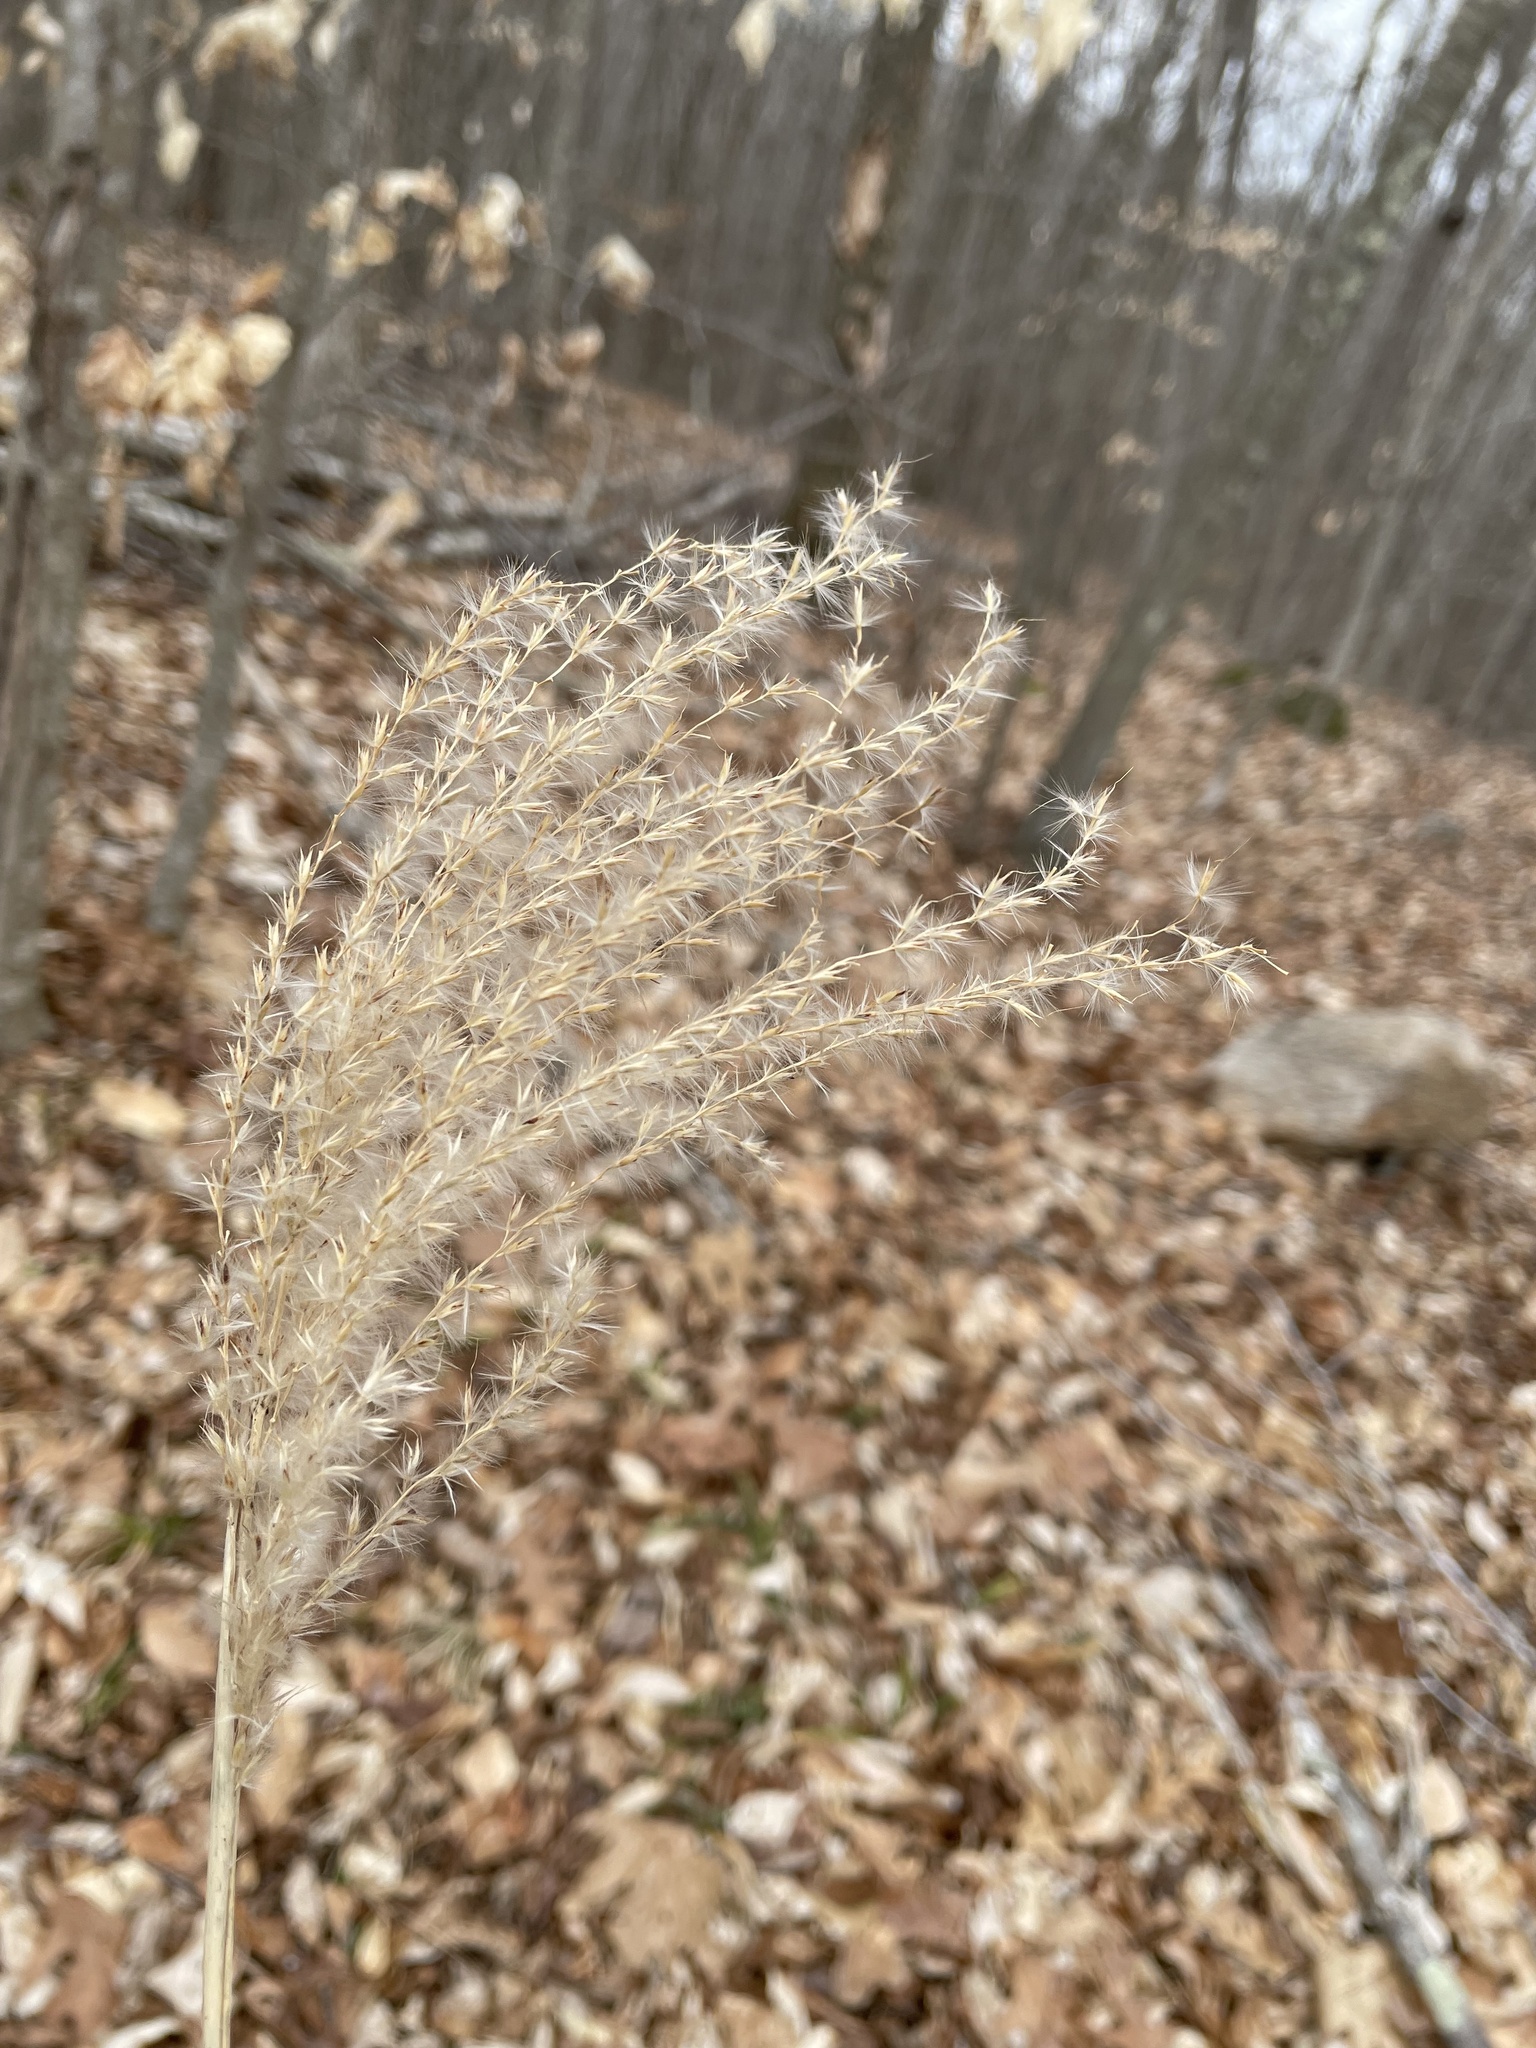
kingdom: Plantae
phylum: Tracheophyta
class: Liliopsida
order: Poales
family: Poaceae
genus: Miscanthus
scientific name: Miscanthus sinensis
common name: Chinese silvergrass
